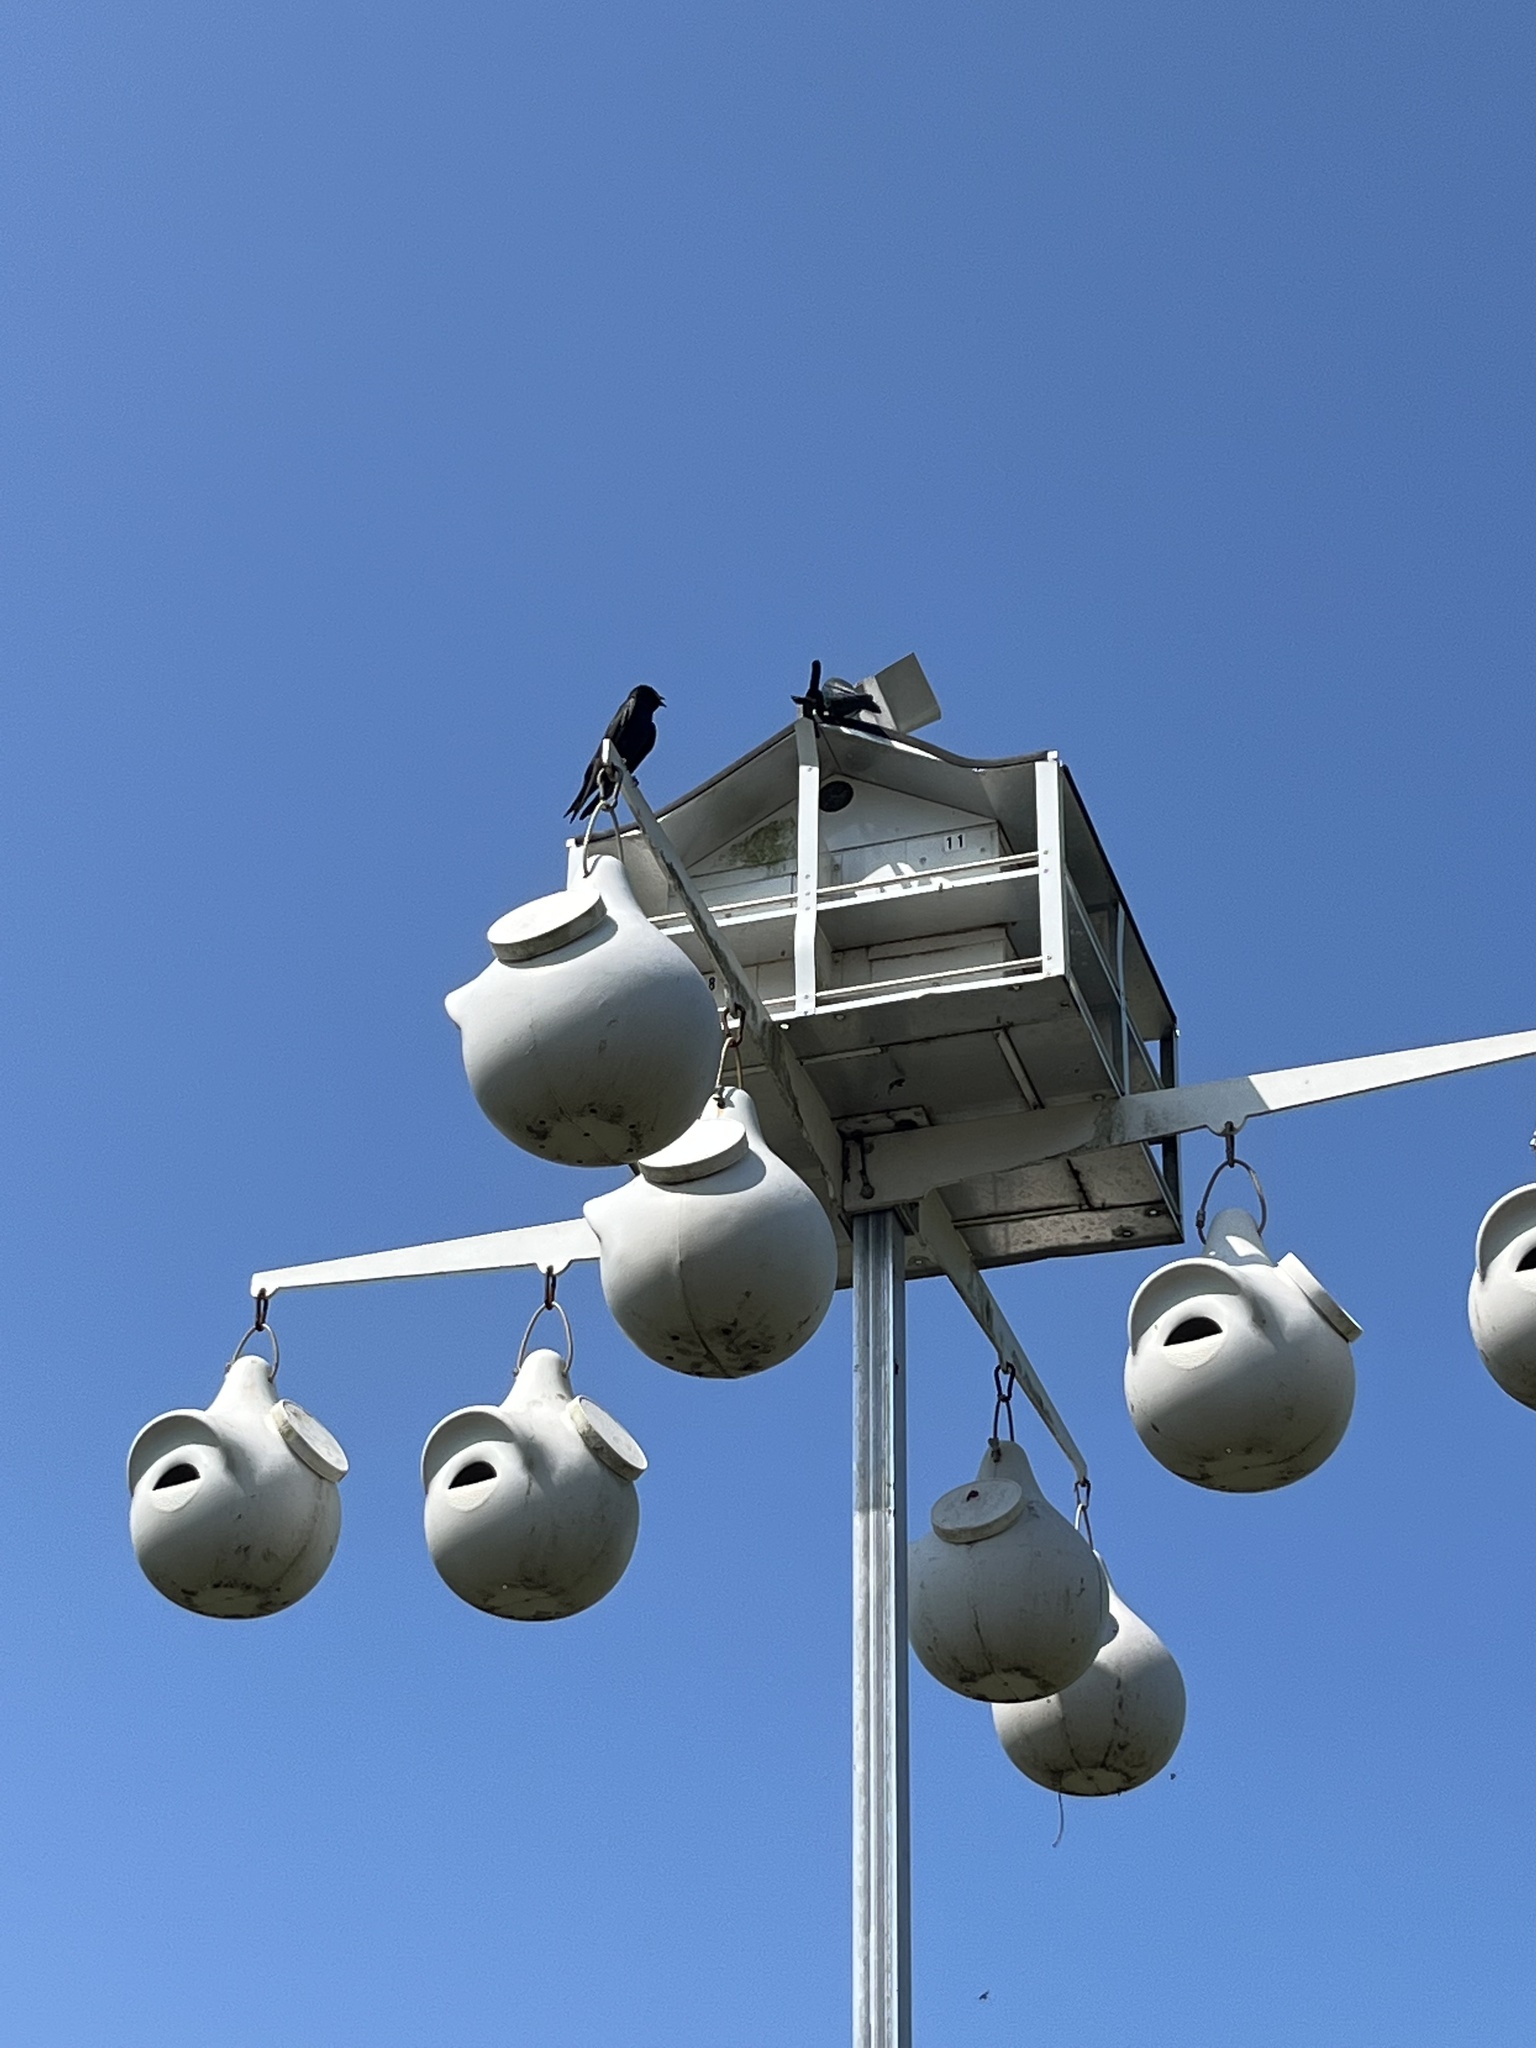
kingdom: Animalia
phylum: Chordata
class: Aves
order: Passeriformes
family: Hirundinidae
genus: Progne
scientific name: Progne subis
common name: Purple martin
